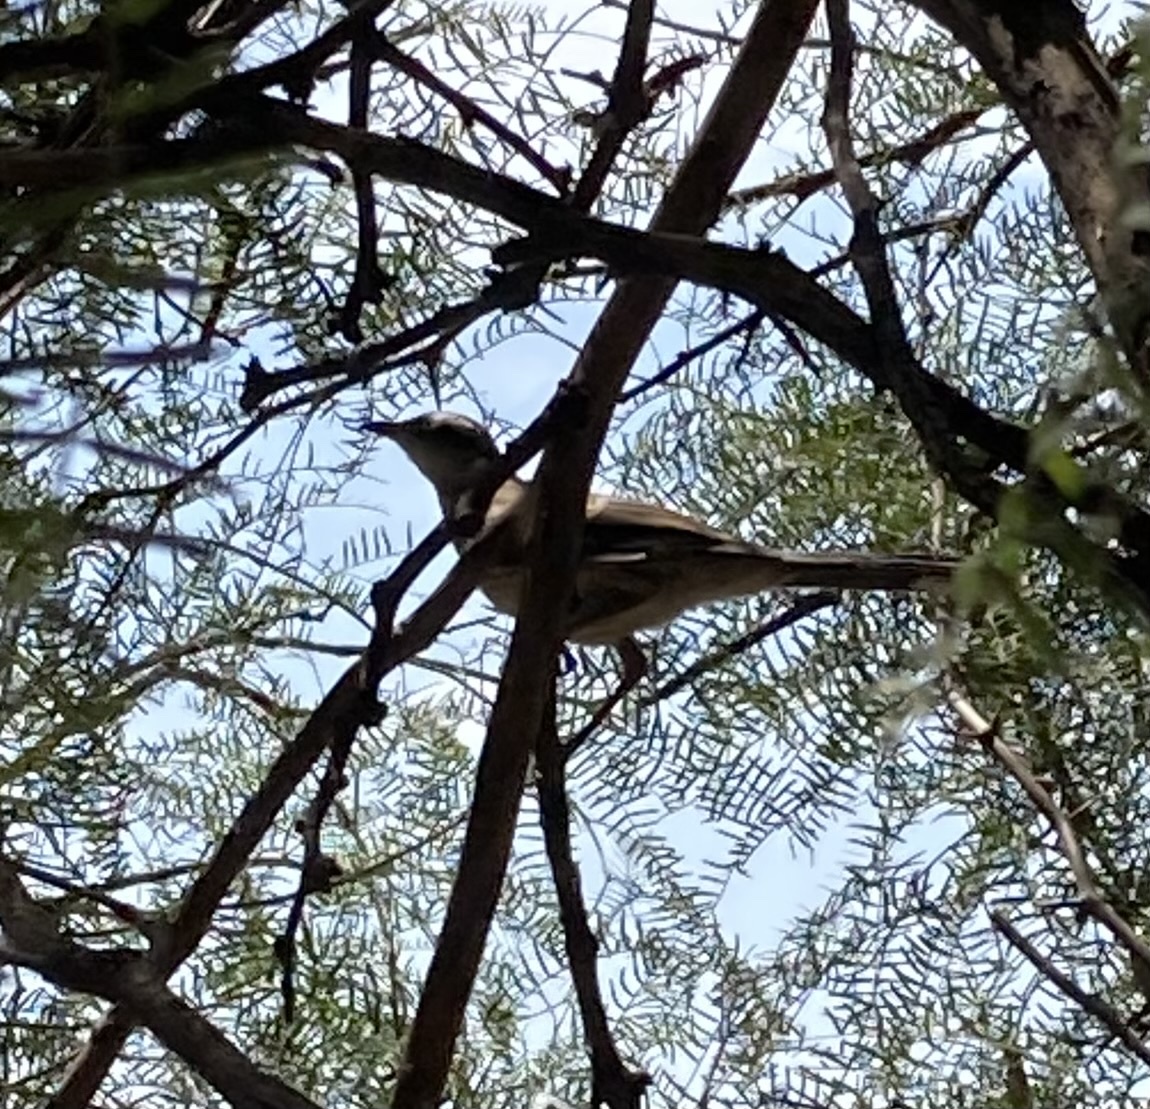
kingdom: Animalia
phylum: Chordata
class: Aves
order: Passeriformes
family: Mimidae
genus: Mimus
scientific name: Mimus saturninus
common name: Chalk-browed mockingbird
